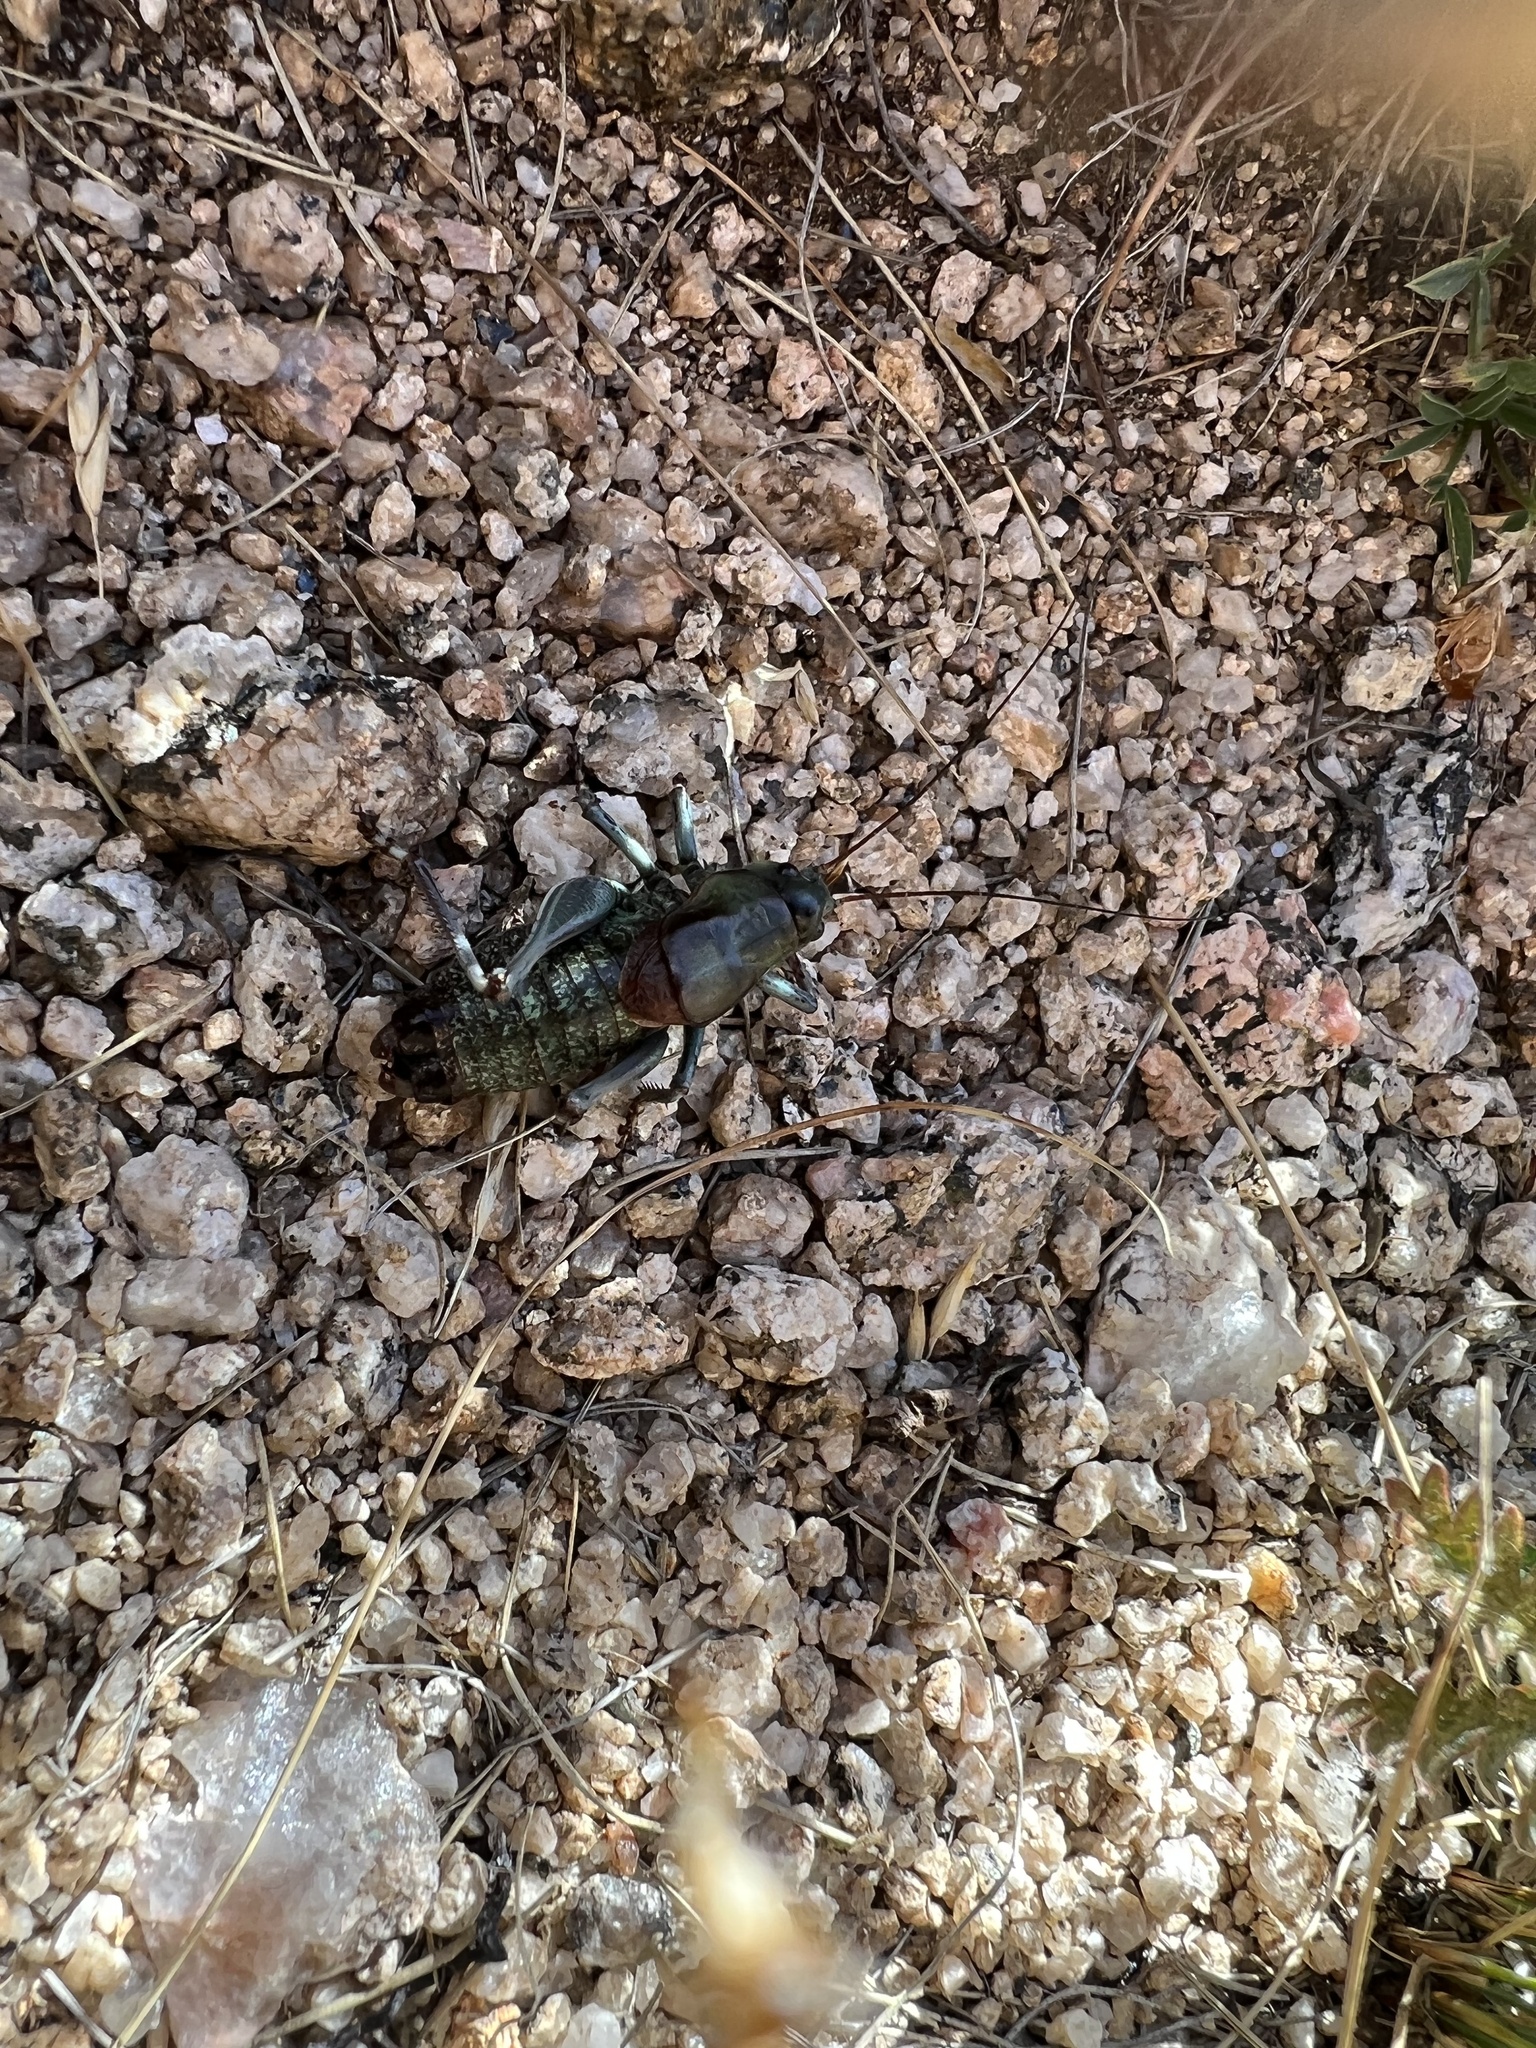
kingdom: Animalia
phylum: Arthropoda
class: Insecta
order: Orthoptera
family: Tettigoniidae
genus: Anabrus
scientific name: Anabrus simplex
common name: Mormon cricket
